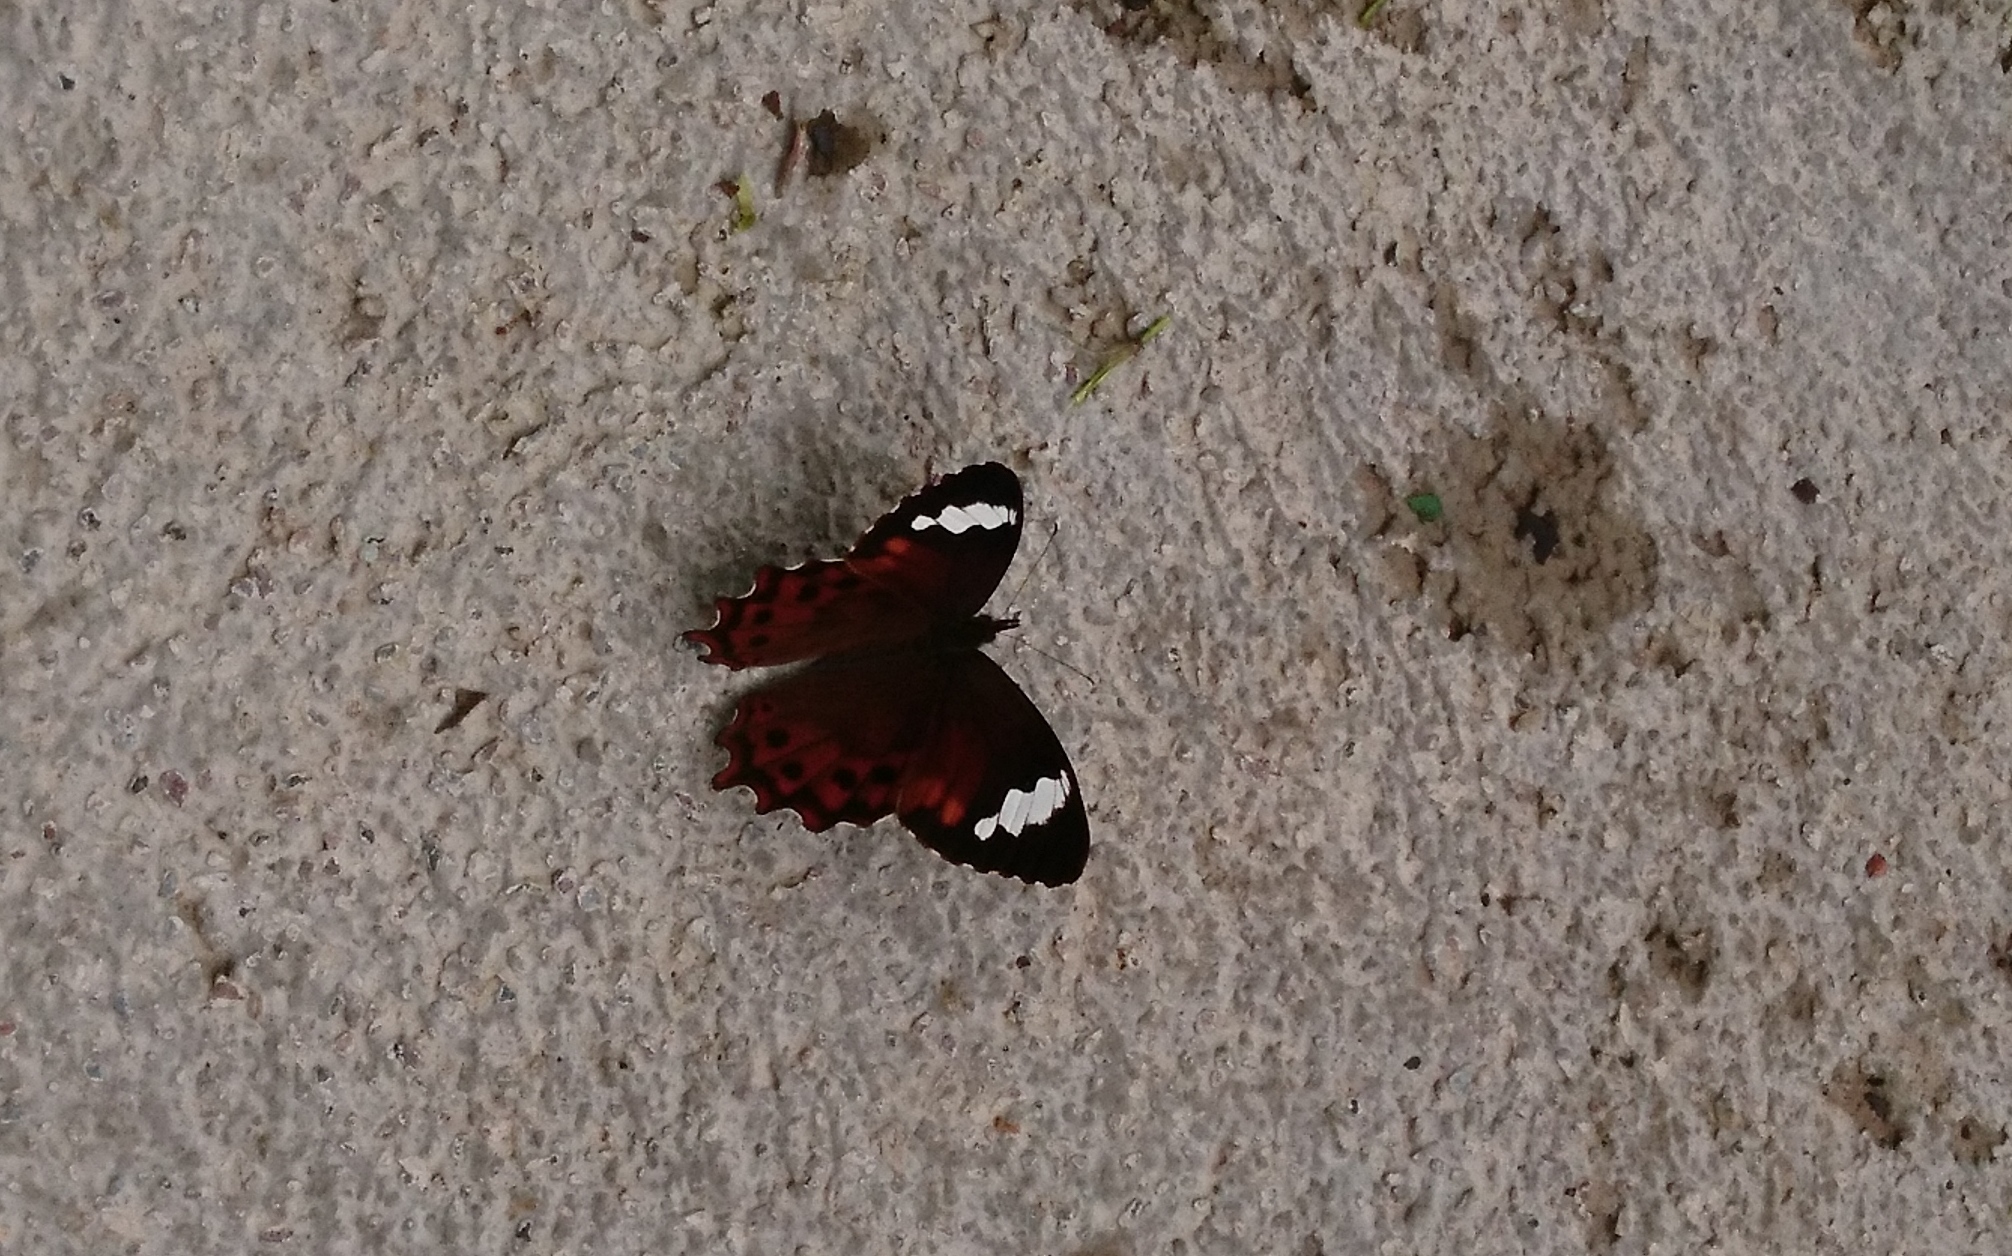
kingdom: Animalia
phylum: Arthropoda
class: Insecta
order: Lepidoptera
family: Nymphalidae
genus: Lasiophila
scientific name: Lasiophila prosymna
